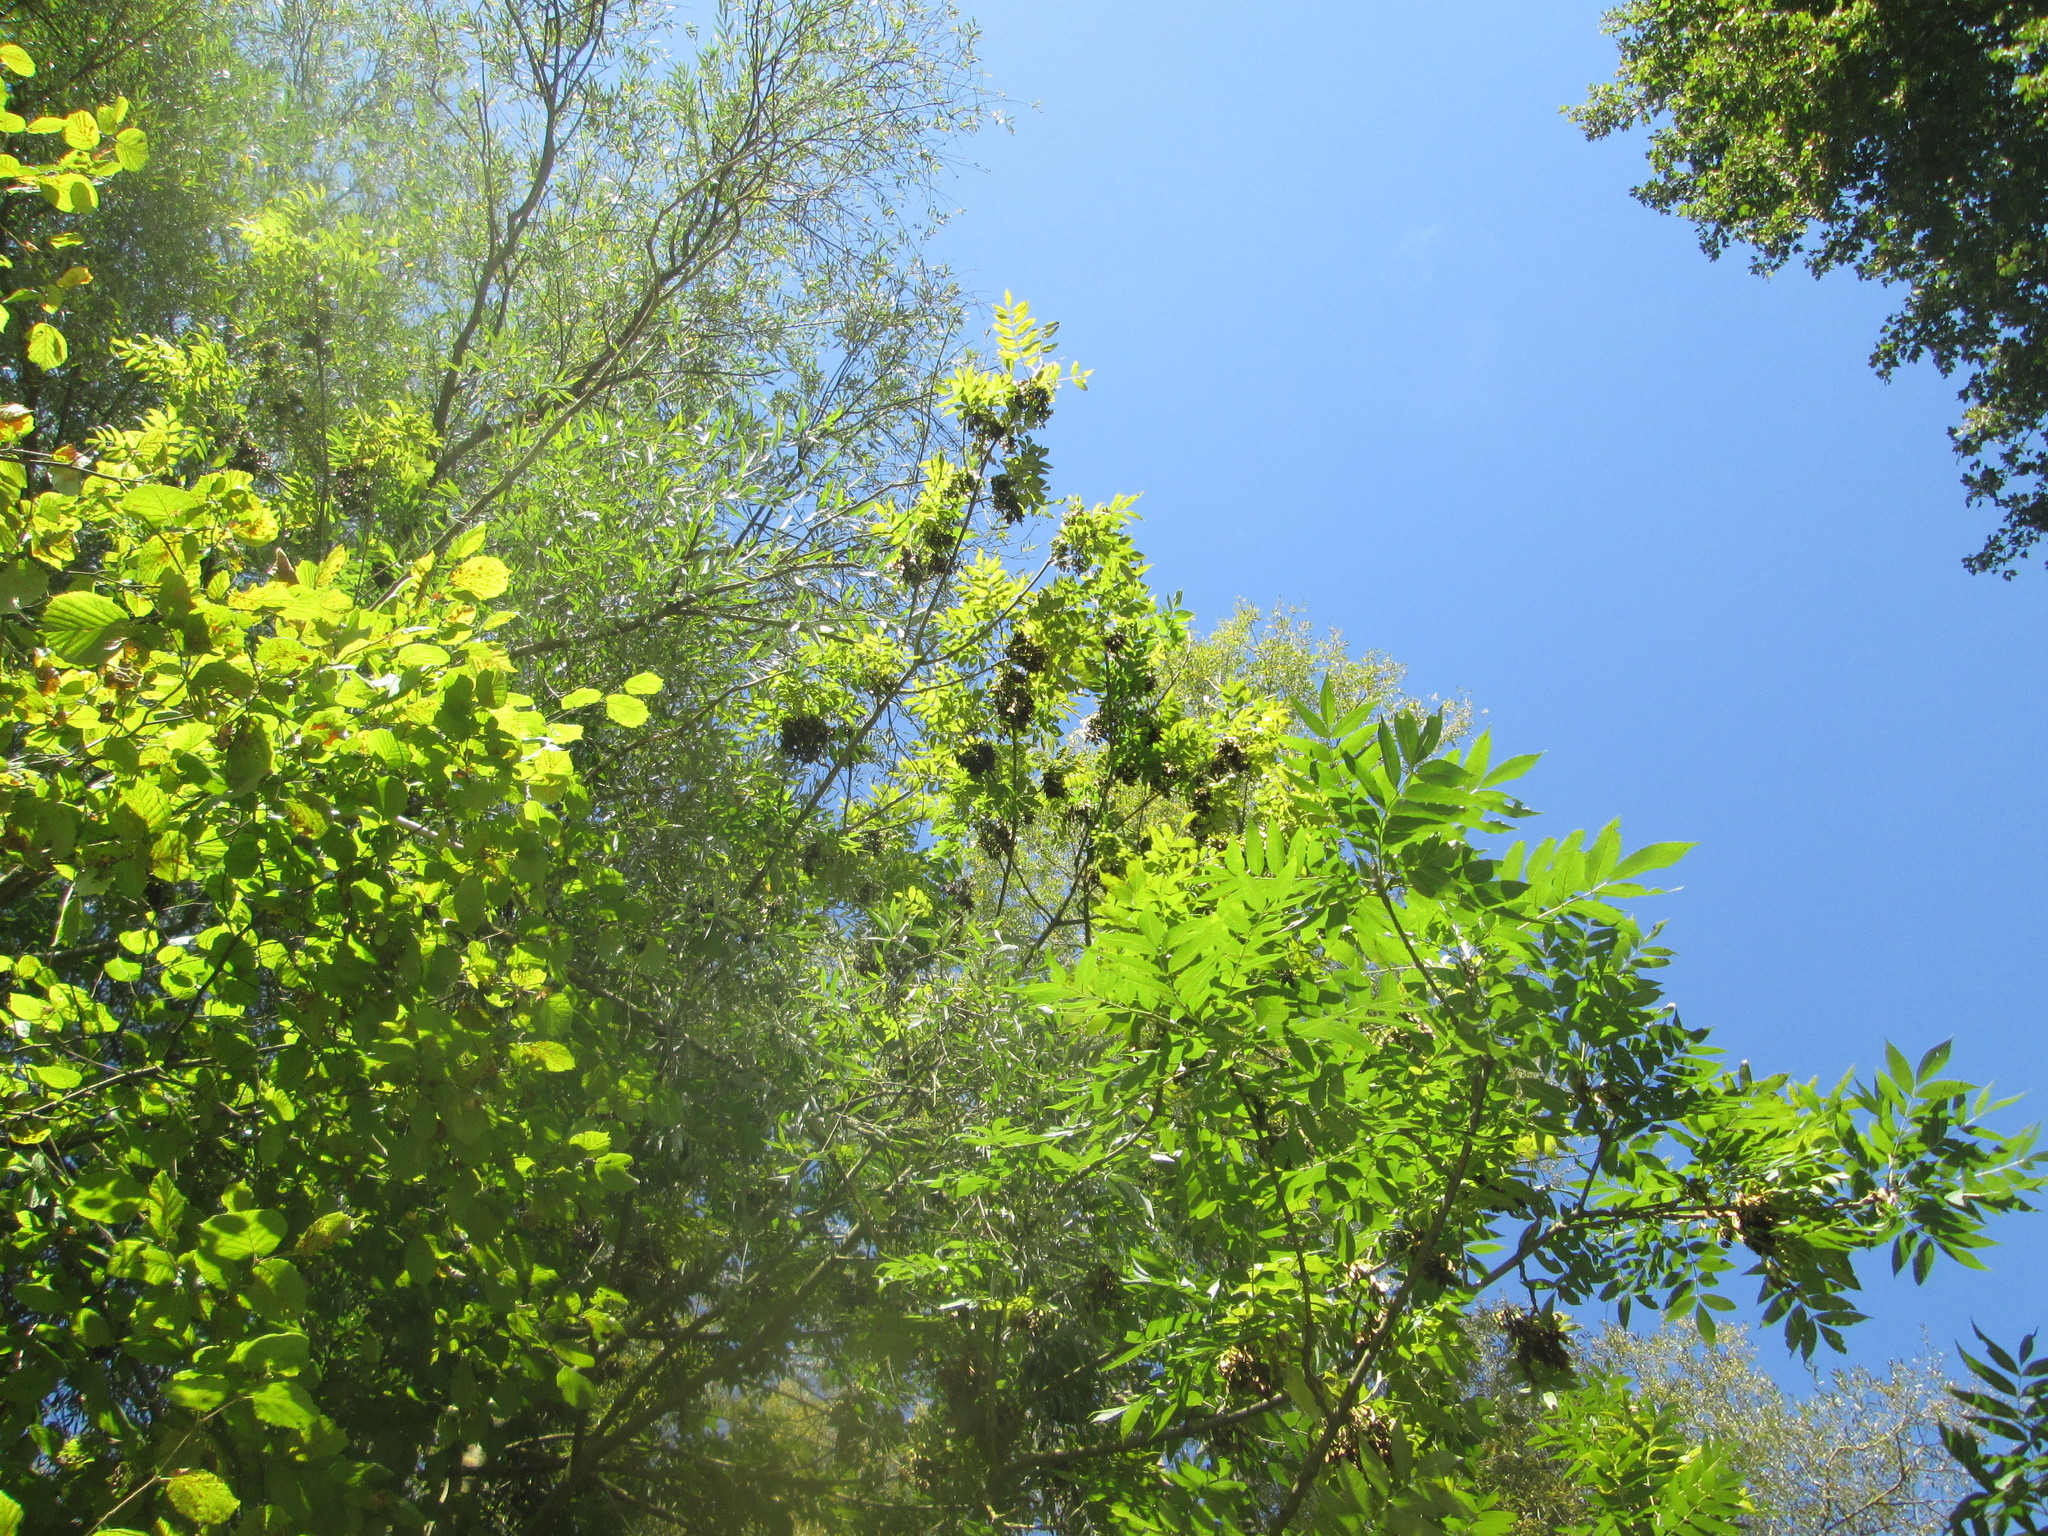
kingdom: Plantae
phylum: Tracheophyta
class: Magnoliopsida
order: Lamiales
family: Oleaceae
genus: Fraxinus
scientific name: Fraxinus excelsior
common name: European ash
